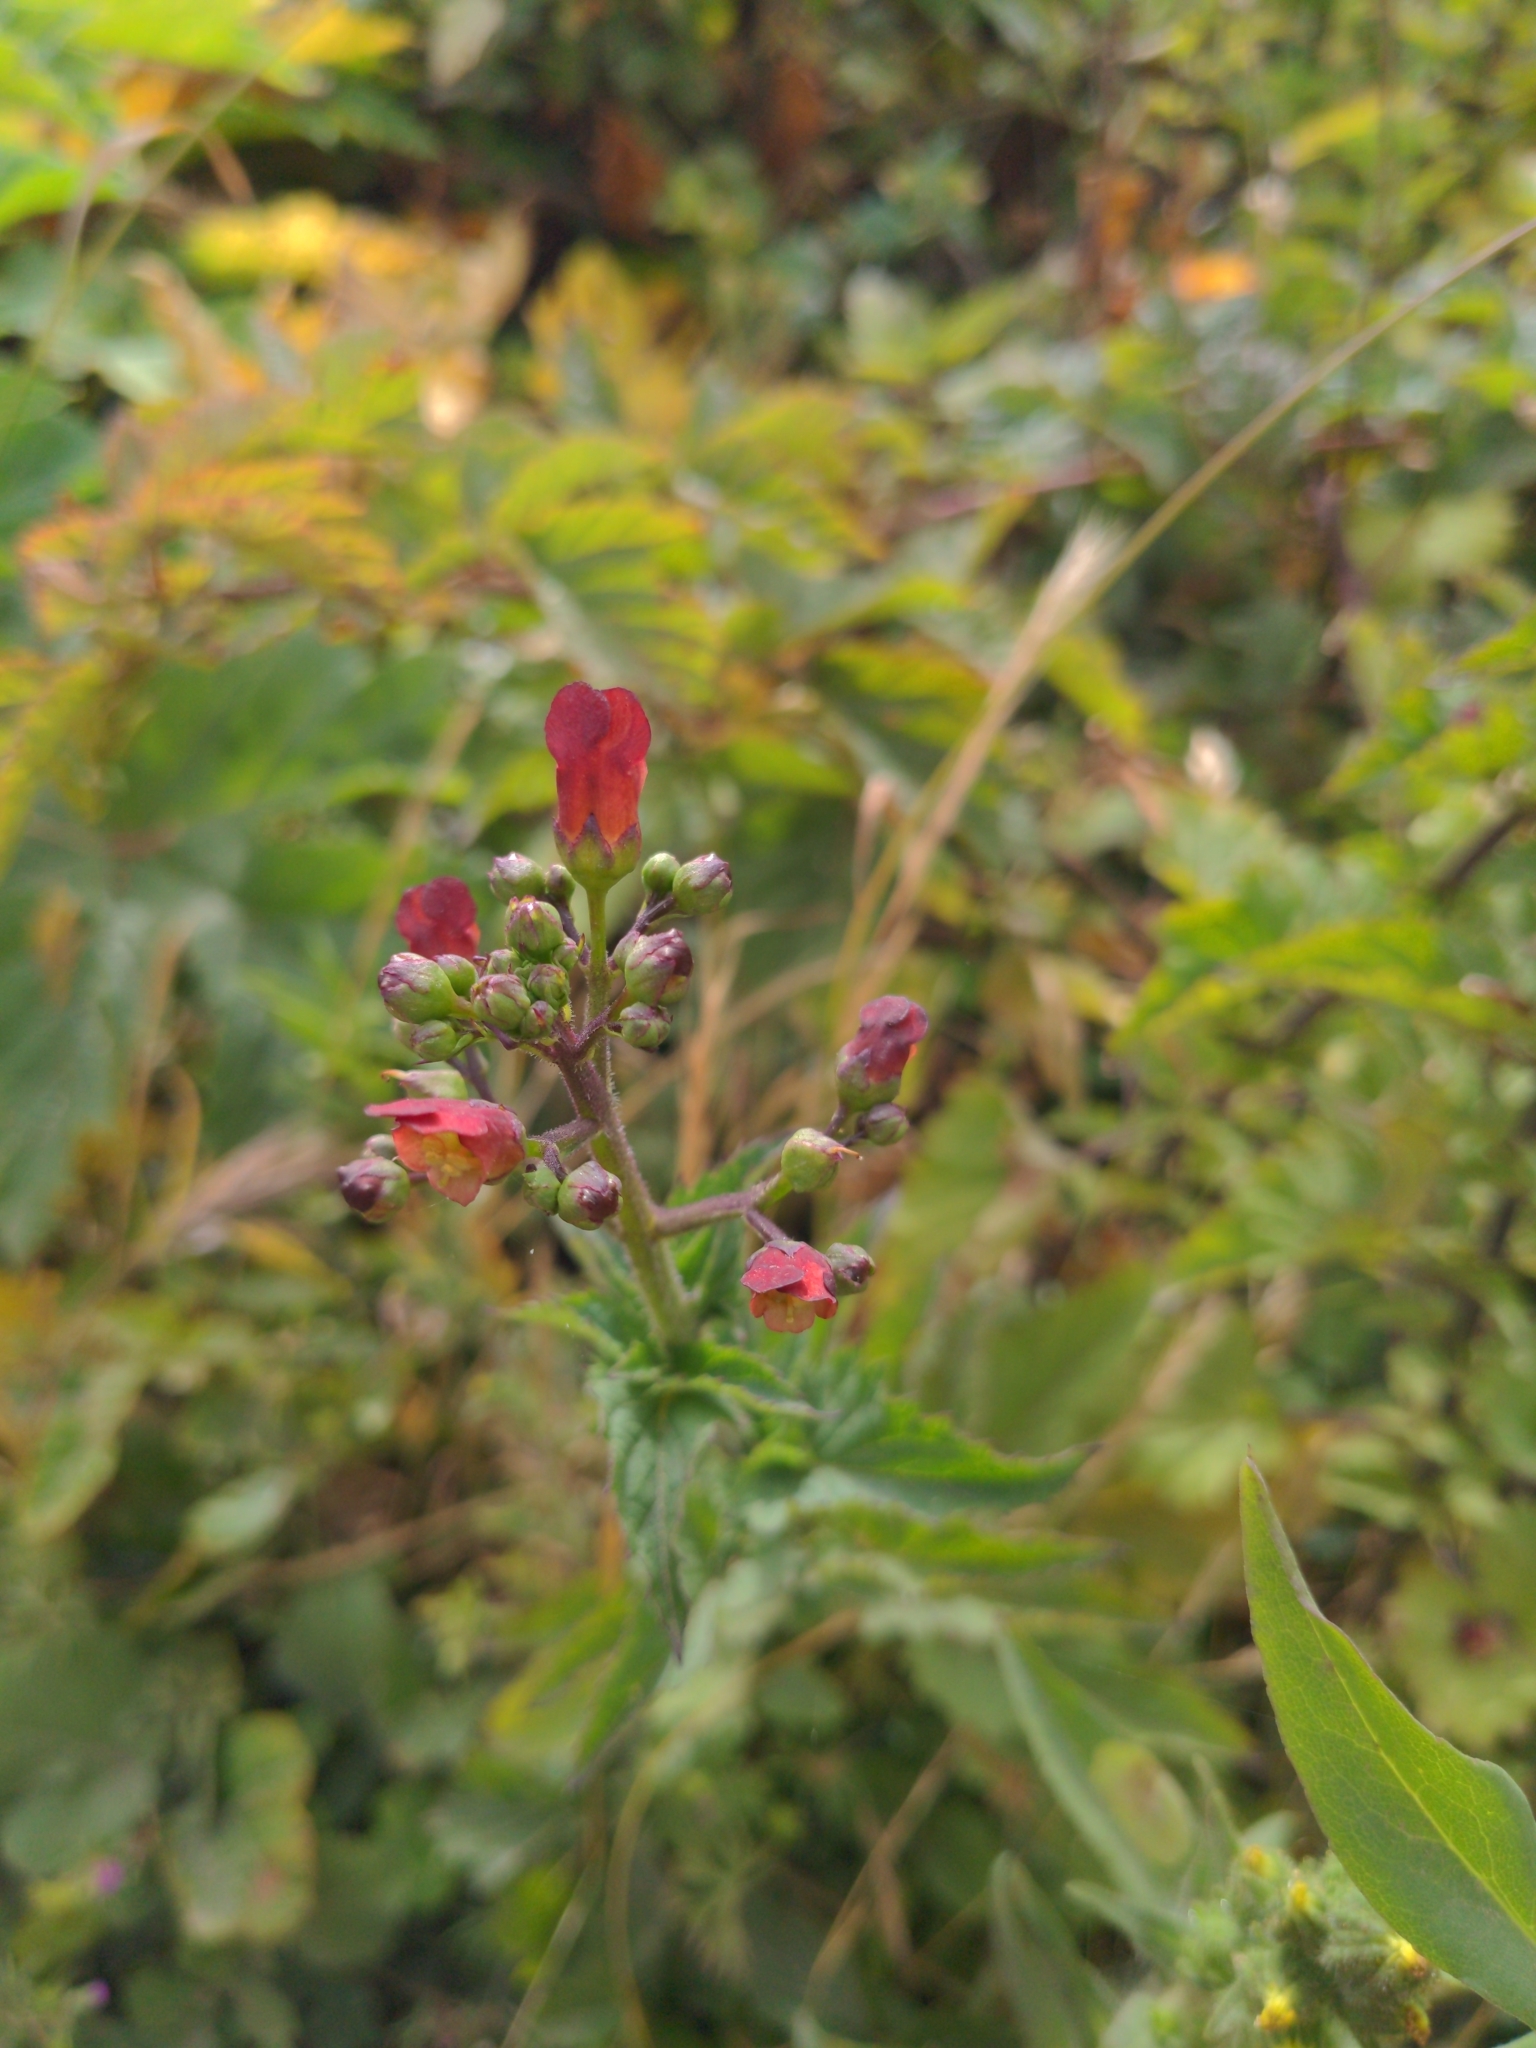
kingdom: Plantae
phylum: Tracheophyta
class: Magnoliopsida
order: Lamiales
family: Scrophulariaceae
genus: Scrophularia
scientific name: Scrophularia californica
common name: California figwort
